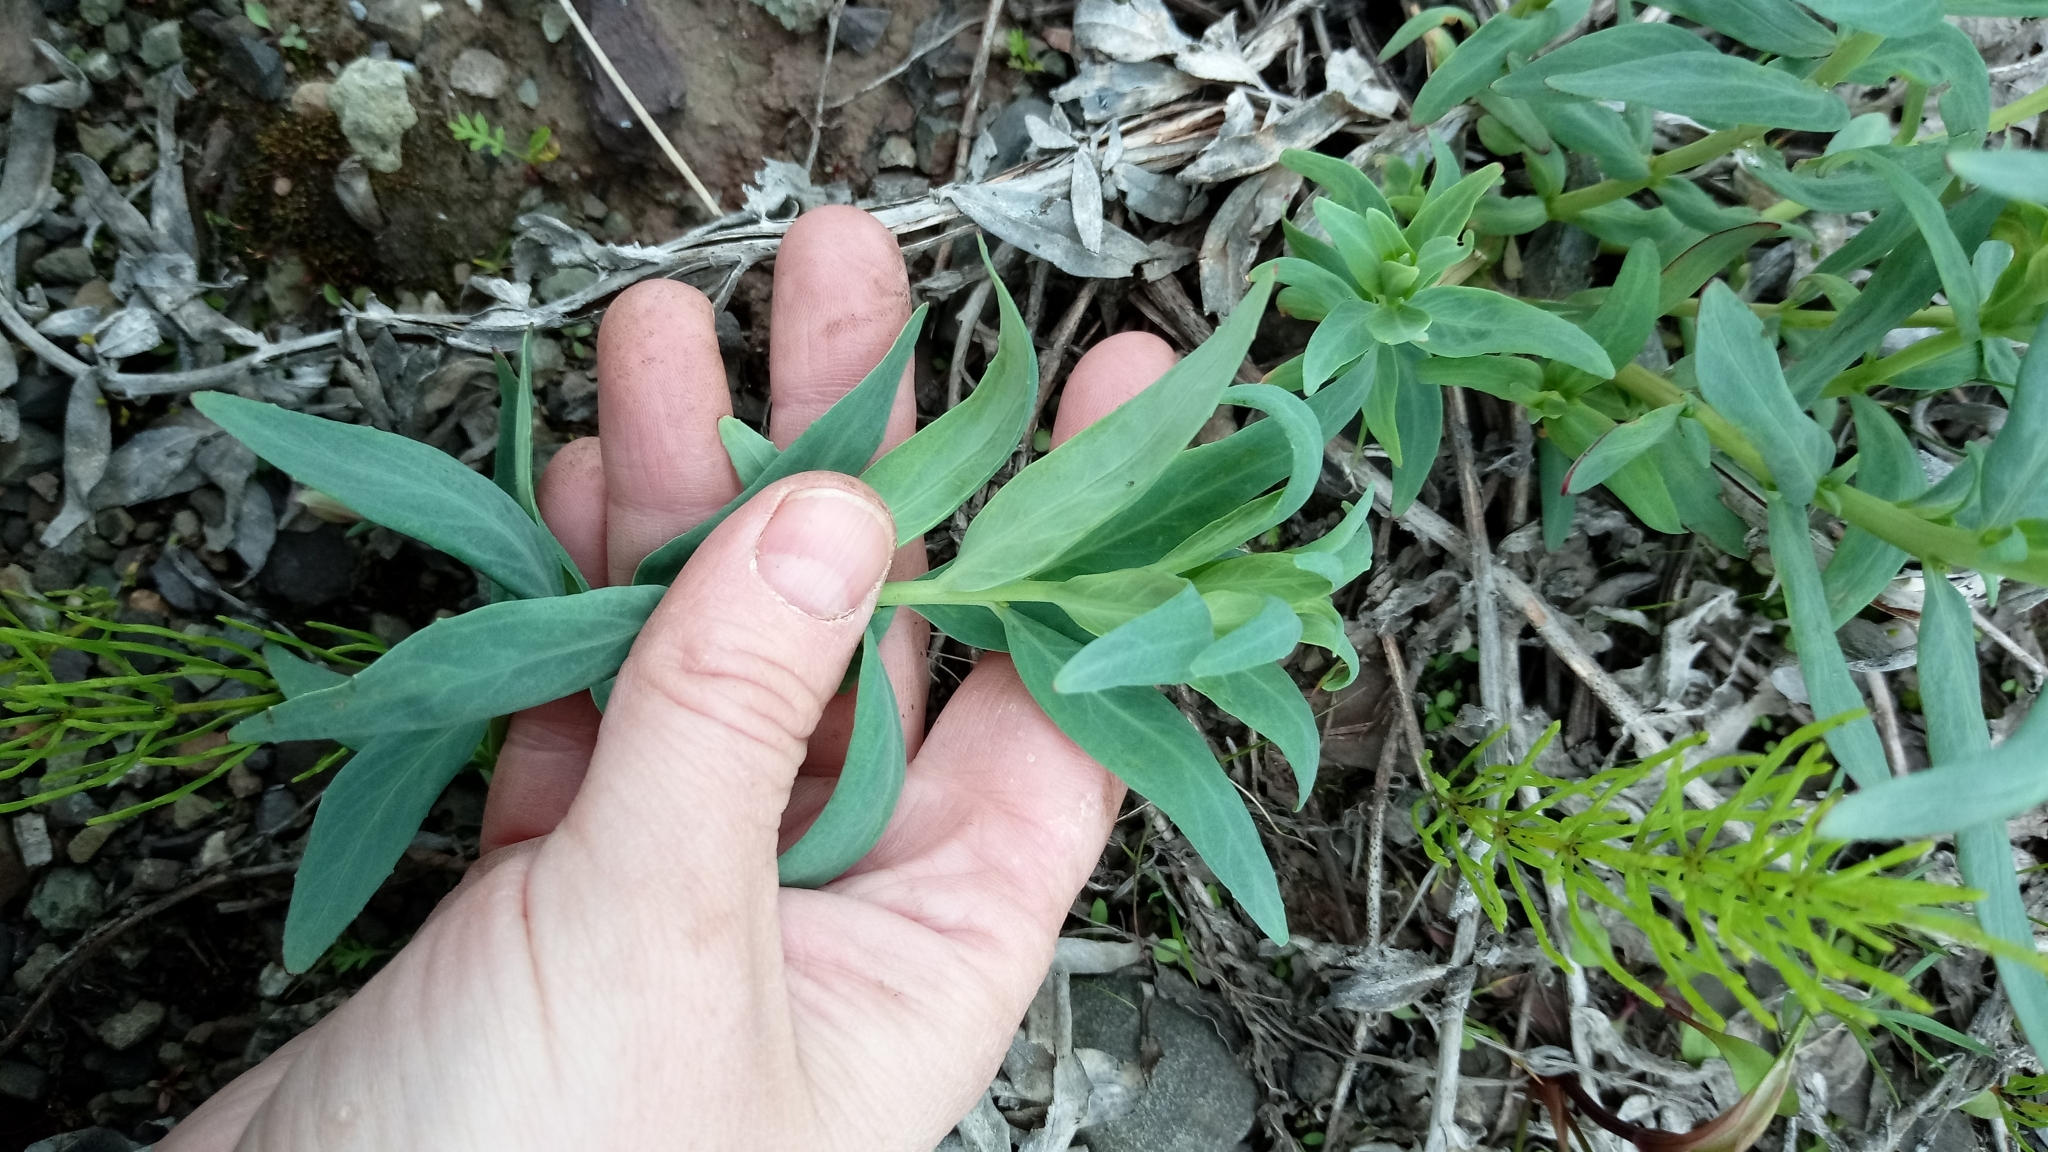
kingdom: Plantae
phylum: Tracheophyta
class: Magnoliopsida
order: Myrtales
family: Onagraceae
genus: Chamaenerion
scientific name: Chamaenerion latifolium
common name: Dwarf fireweed
